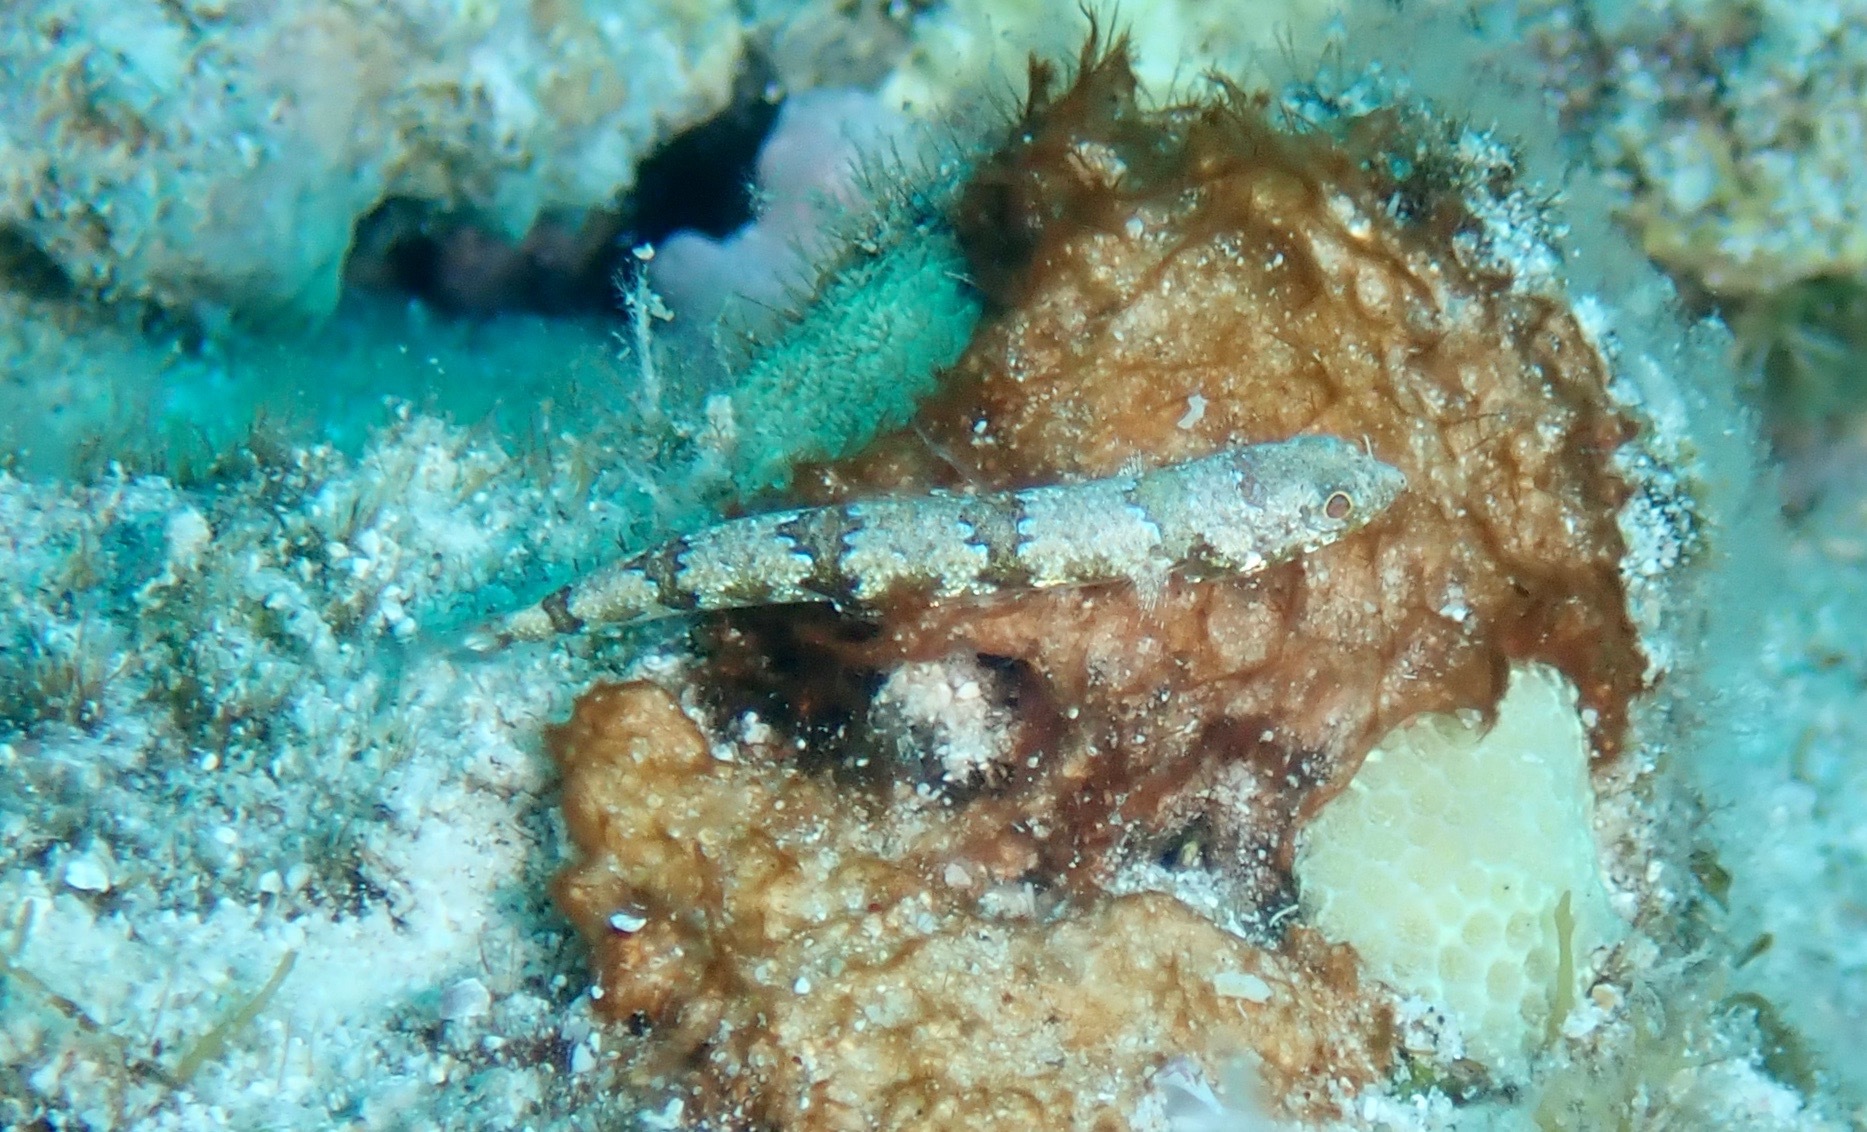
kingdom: Animalia
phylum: Chordata
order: Aulopiformes
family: Synodontidae
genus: Synodus
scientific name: Synodus rubromarmoratus
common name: Redmarbled lizardfish
